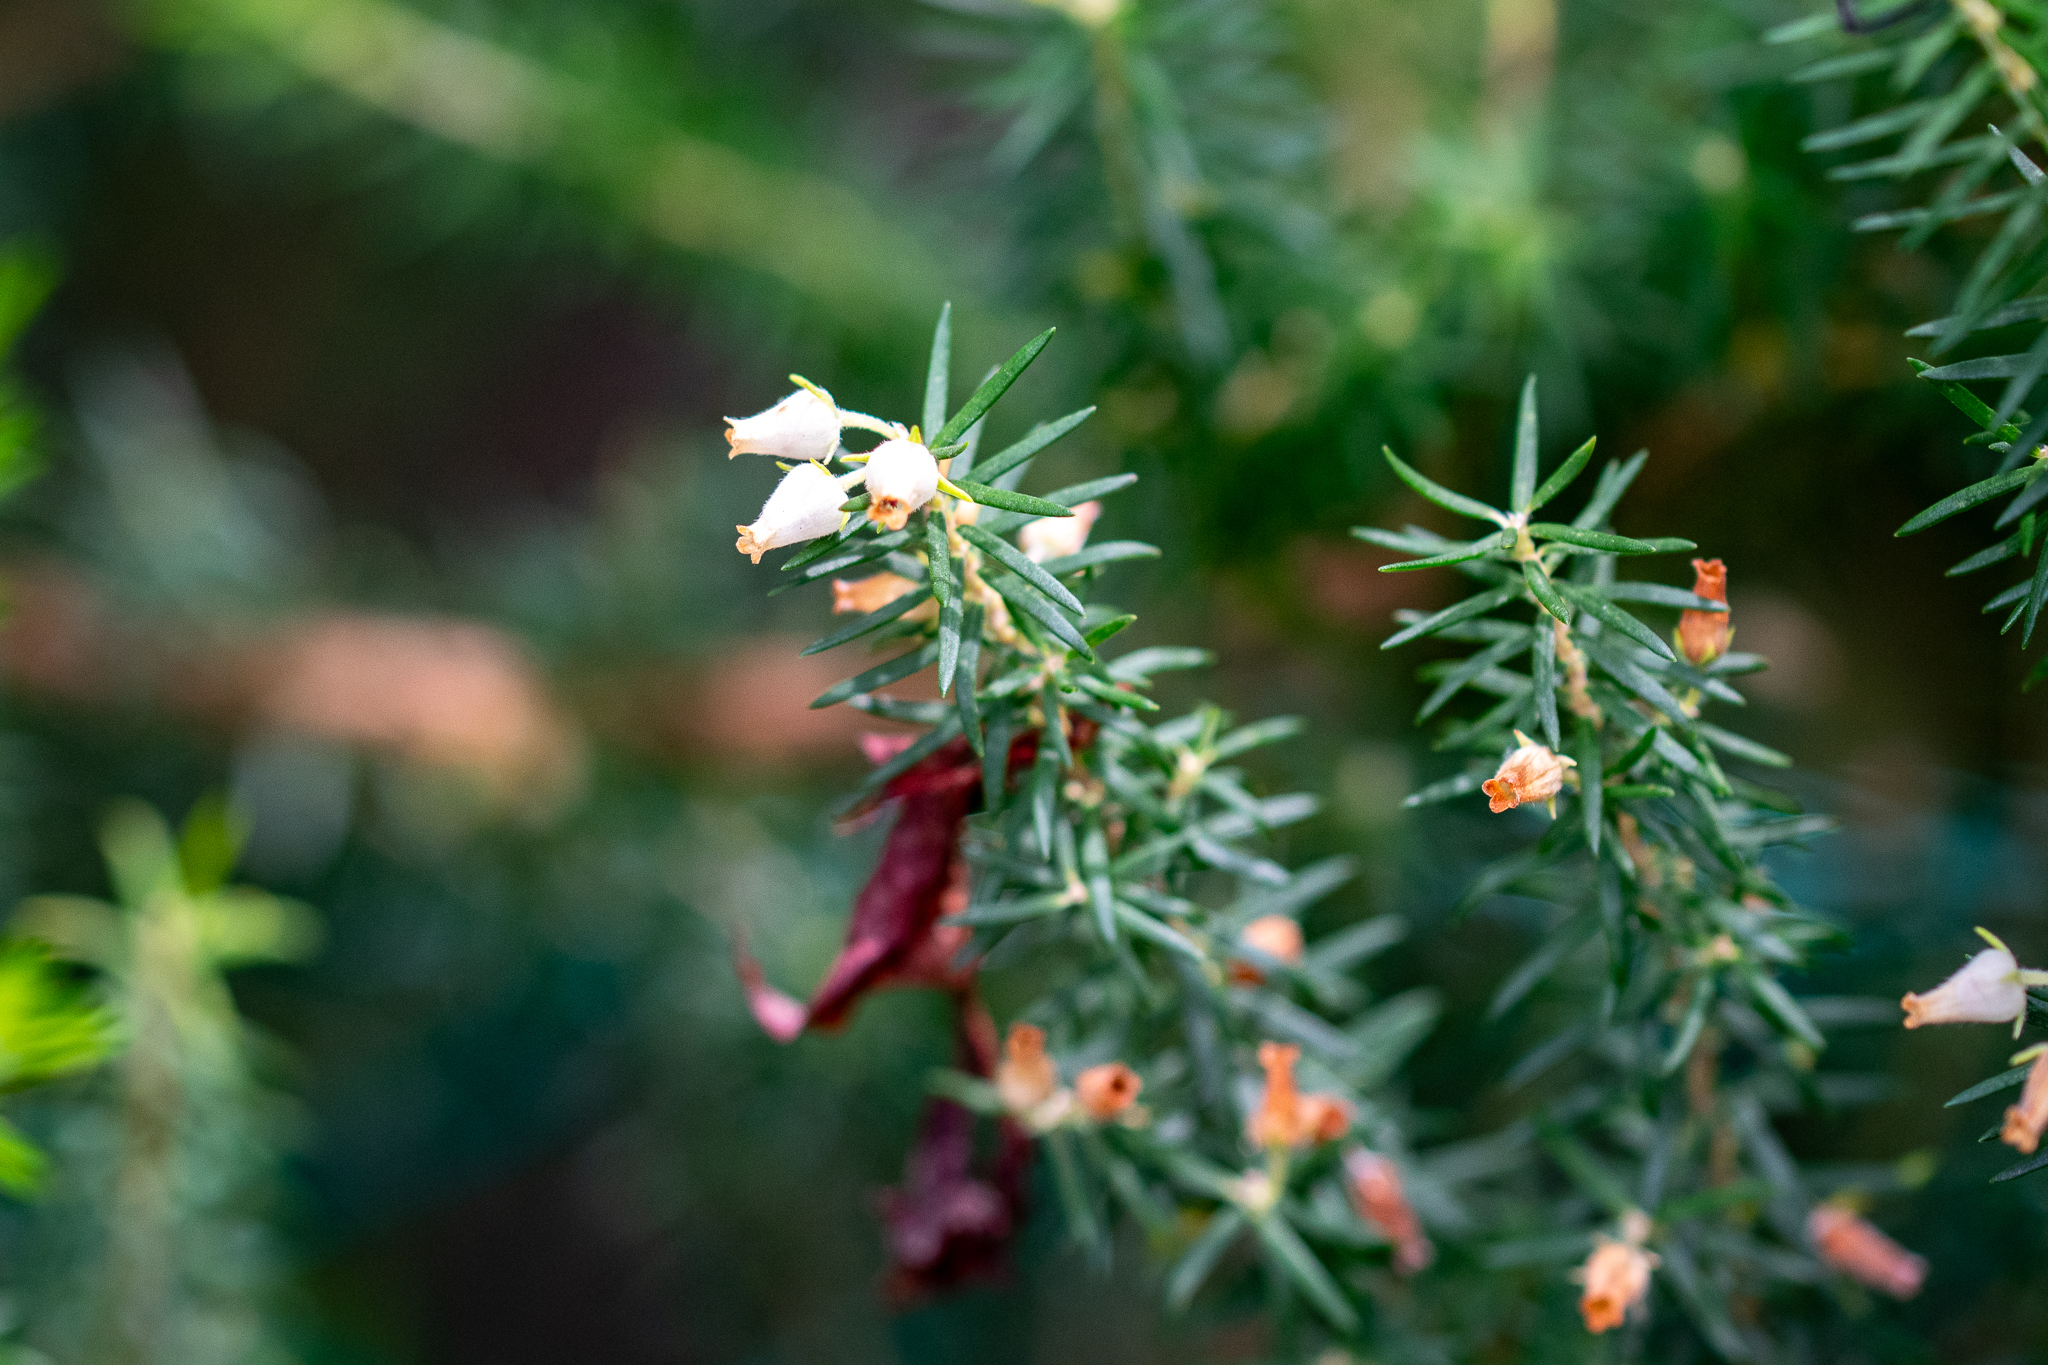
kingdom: Plantae
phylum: Tracheophyta
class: Magnoliopsida
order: Ericales
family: Ericaceae
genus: Erica
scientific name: Erica caffra
